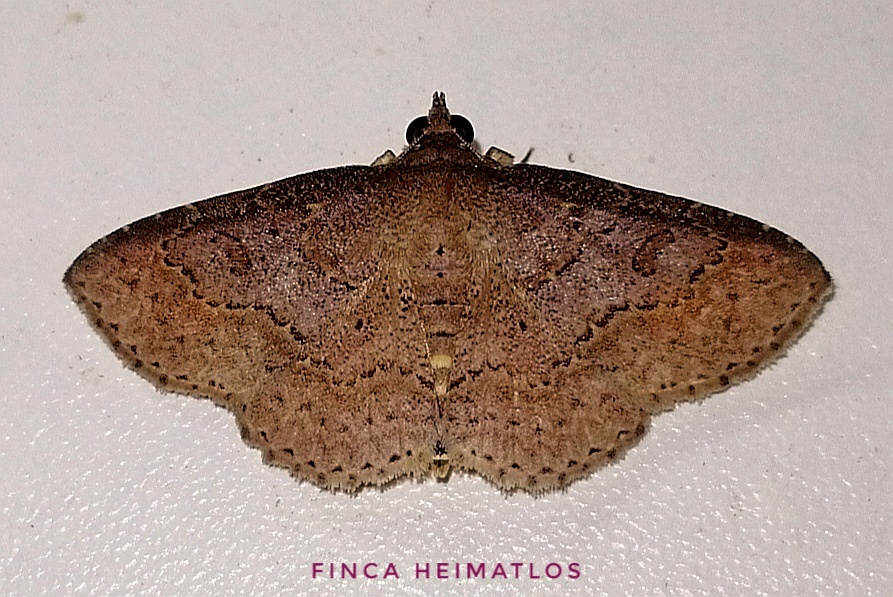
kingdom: Animalia
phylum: Arthropoda
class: Insecta
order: Lepidoptera
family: Erebidae
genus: Antiblemma
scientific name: Antiblemma addana
